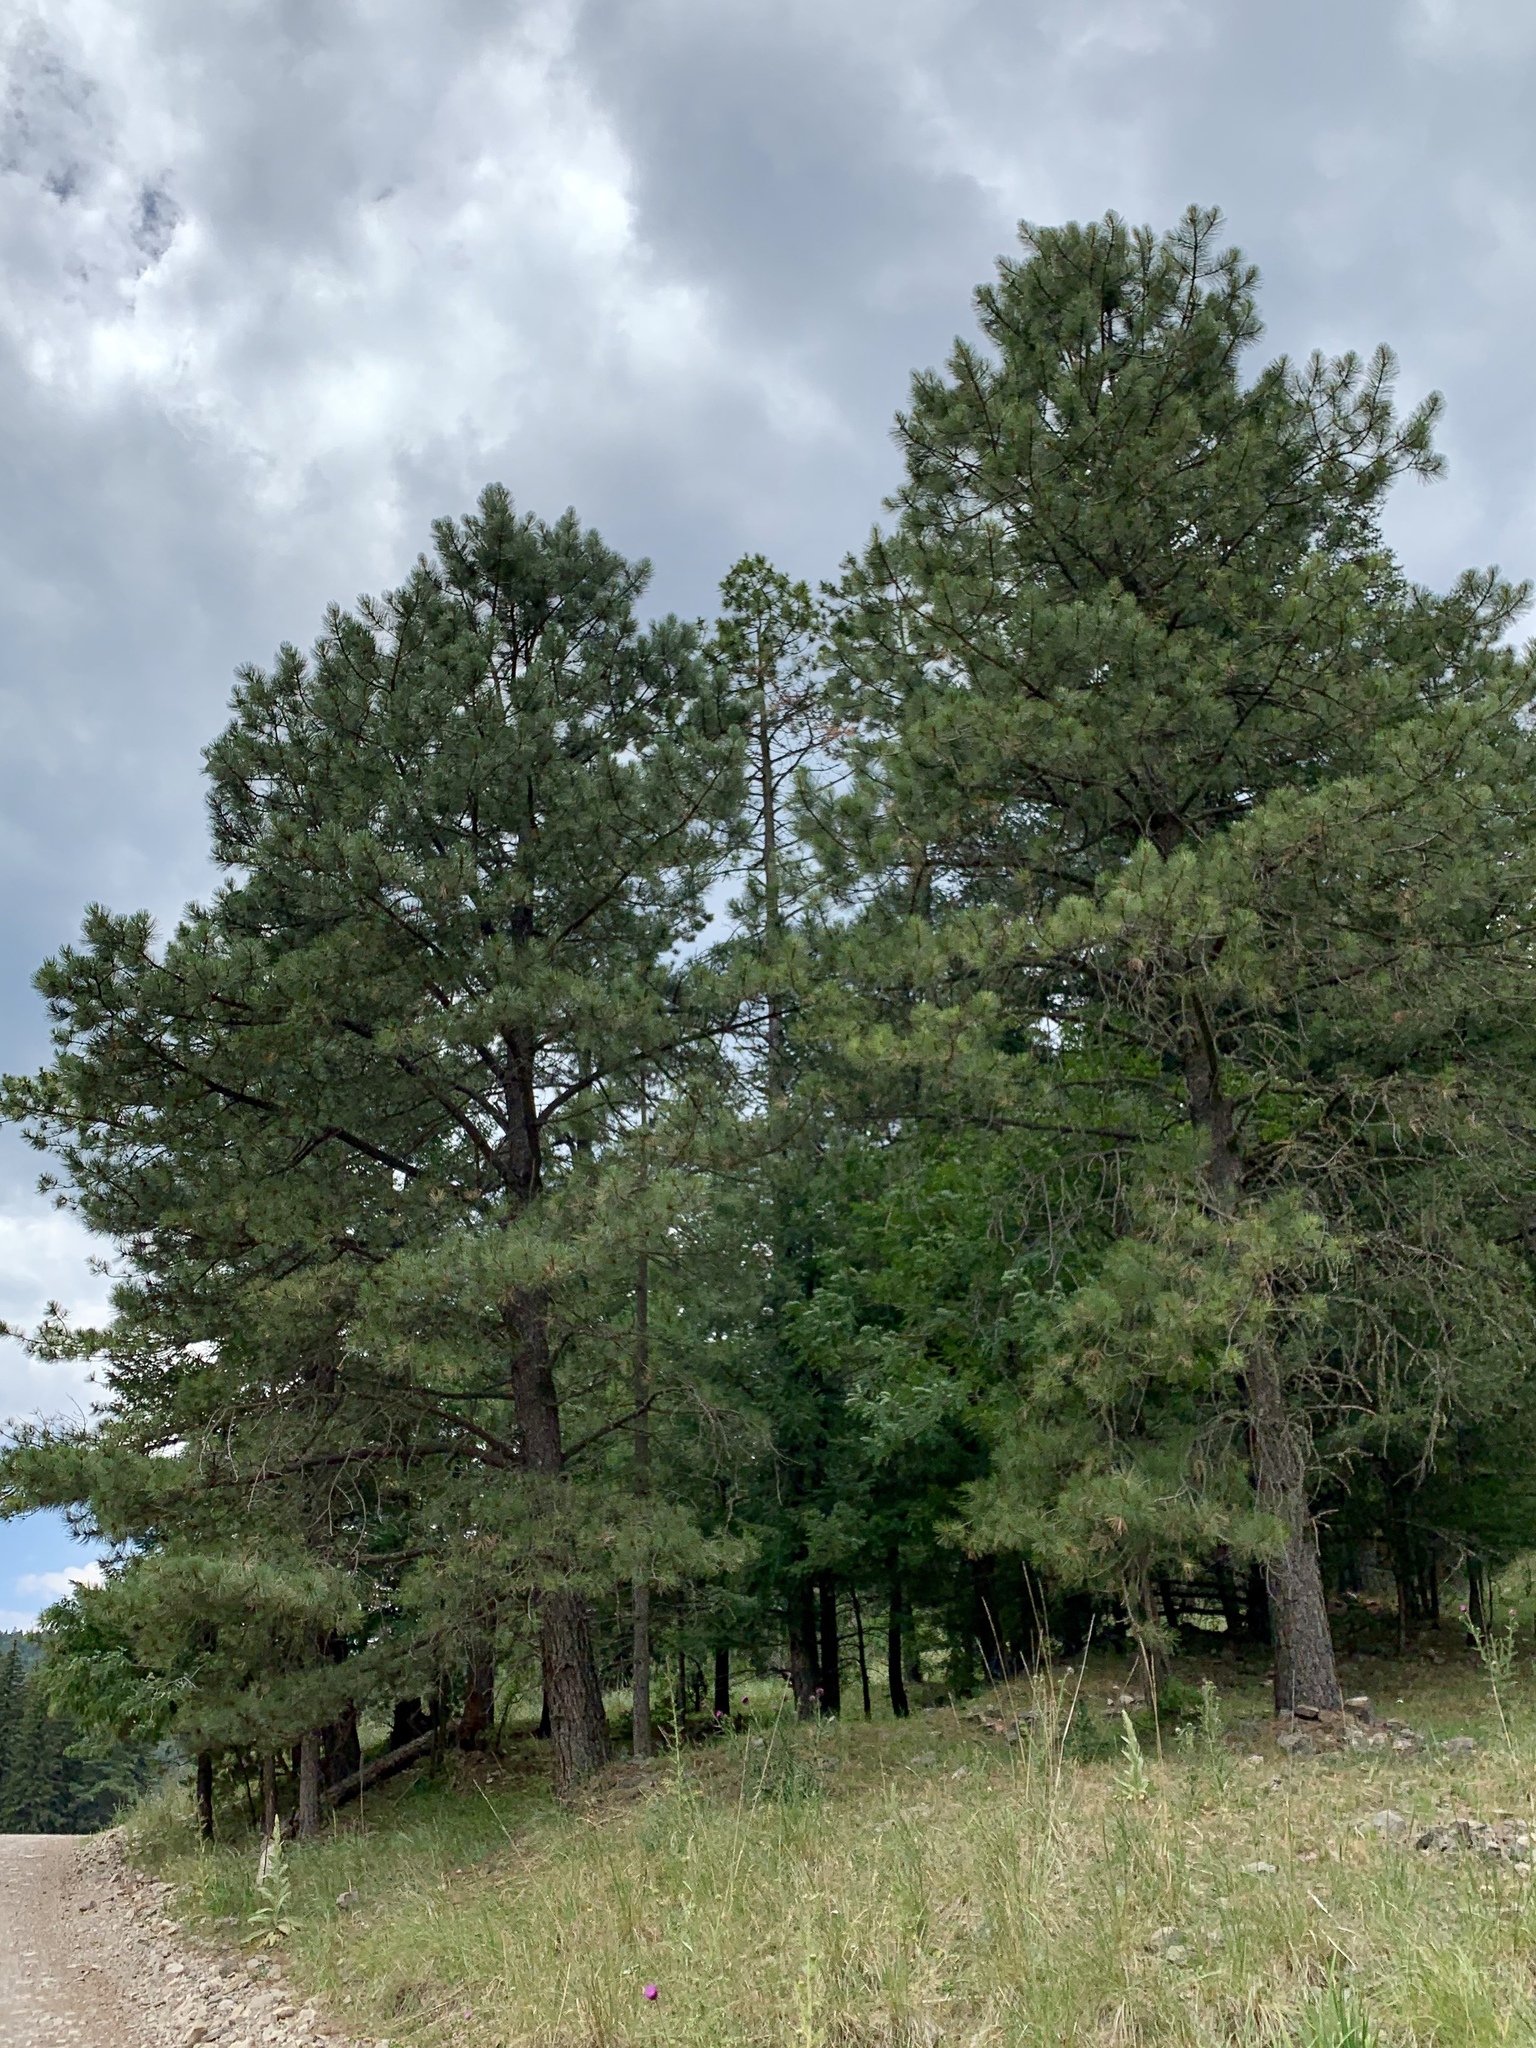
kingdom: Plantae
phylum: Tracheophyta
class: Pinopsida
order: Pinales
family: Pinaceae
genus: Pinus
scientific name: Pinus ponderosa
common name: Western yellow-pine
